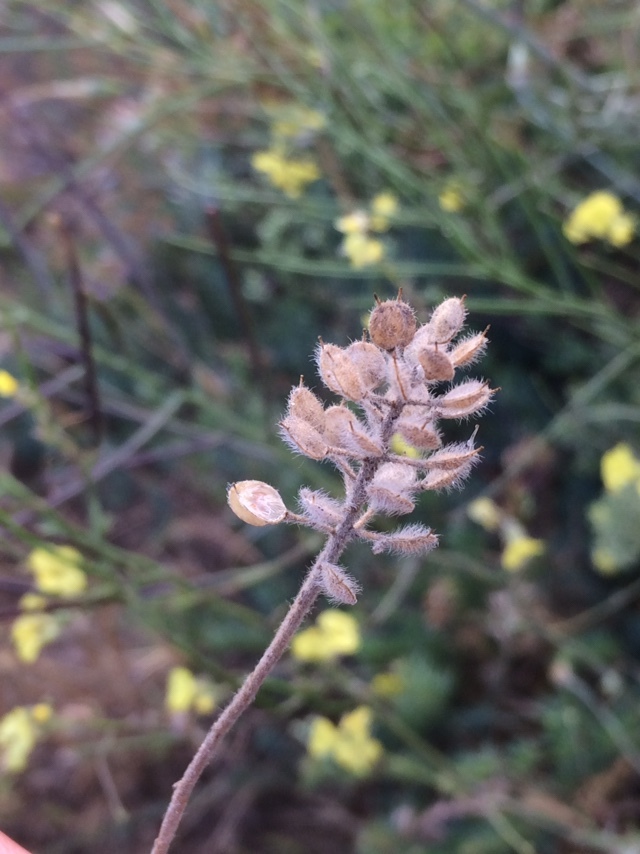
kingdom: Plantae
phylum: Tracheophyta
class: Magnoliopsida
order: Brassicales
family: Brassicaceae
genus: Alyssum
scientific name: Alyssum hirsutum
